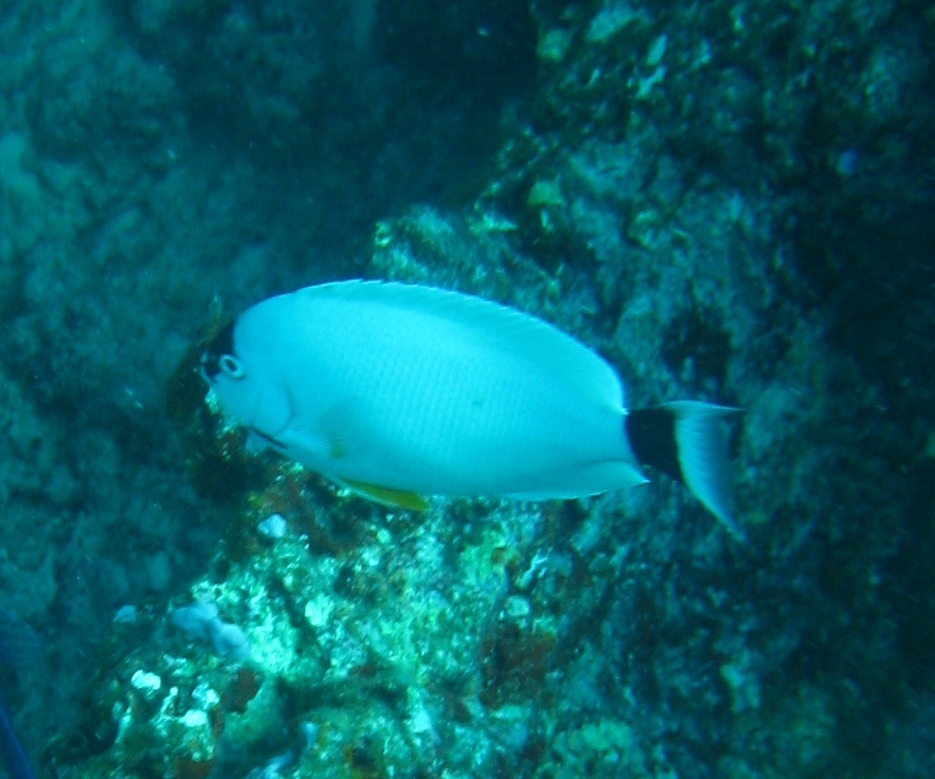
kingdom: Animalia
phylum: Chordata
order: Perciformes
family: Pomacanthidae
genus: Genicanthus
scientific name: Genicanthus personatus
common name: Masked angelfish
